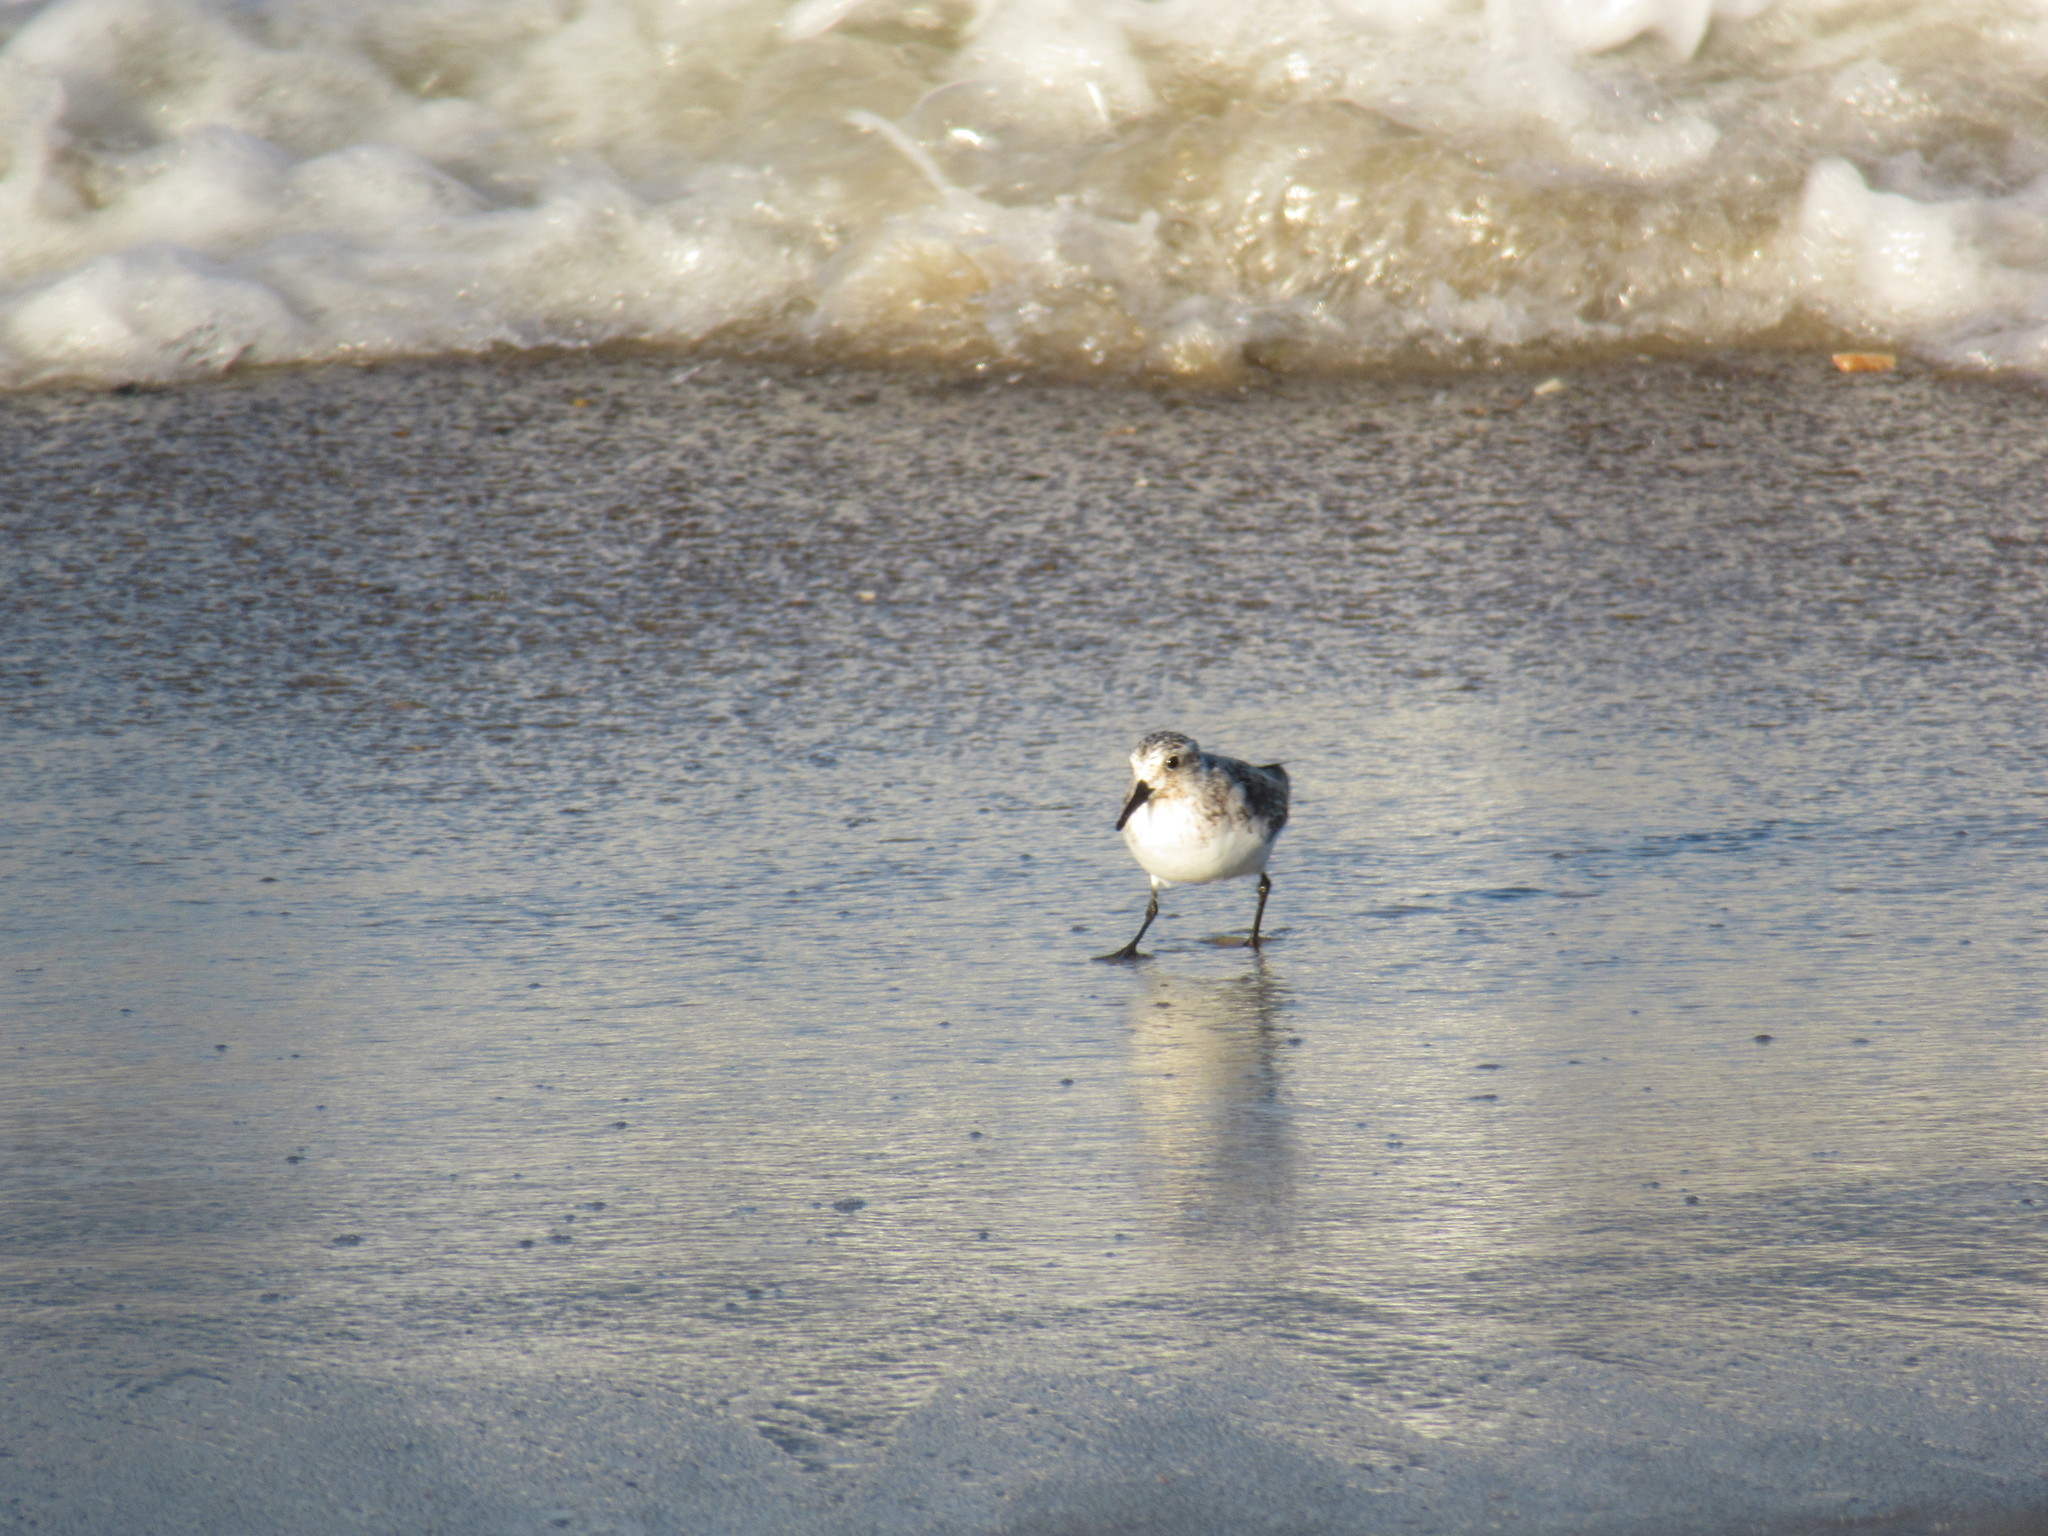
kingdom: Animalia
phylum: Chordata
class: Aves
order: Charadriiformes
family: Scolopacidae
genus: Calidris
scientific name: Calidris alba
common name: Sanderling
